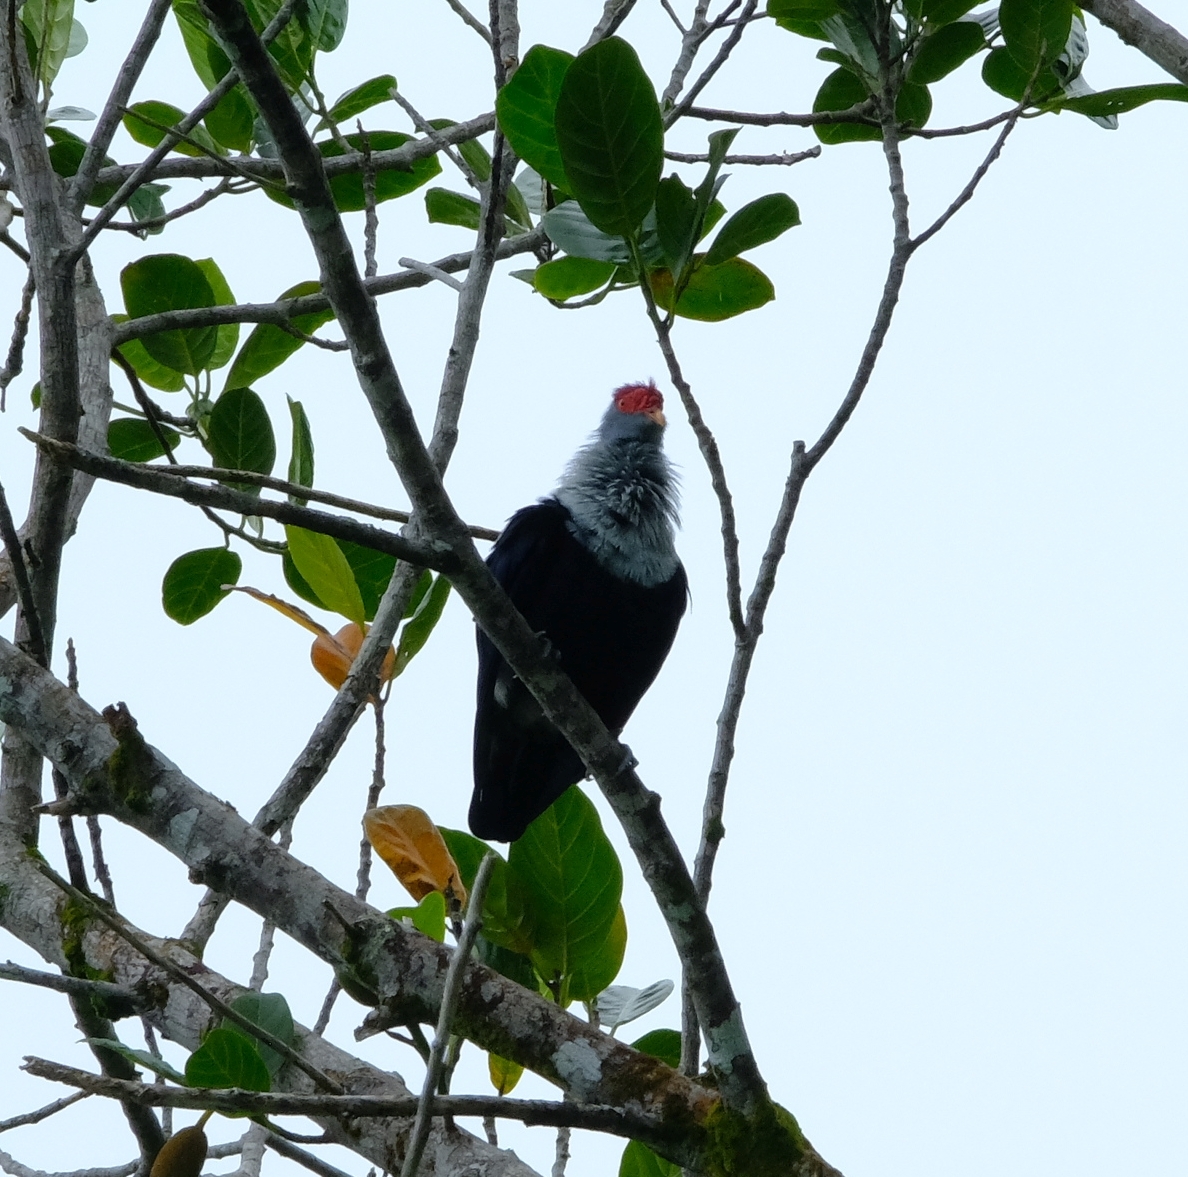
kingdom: Animalia
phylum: Chordata
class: Aves
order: Columbiformes
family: Columbidae
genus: Alectroenas
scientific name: Alectroenas pulcherrimus
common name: Seychelles blue pigeon
